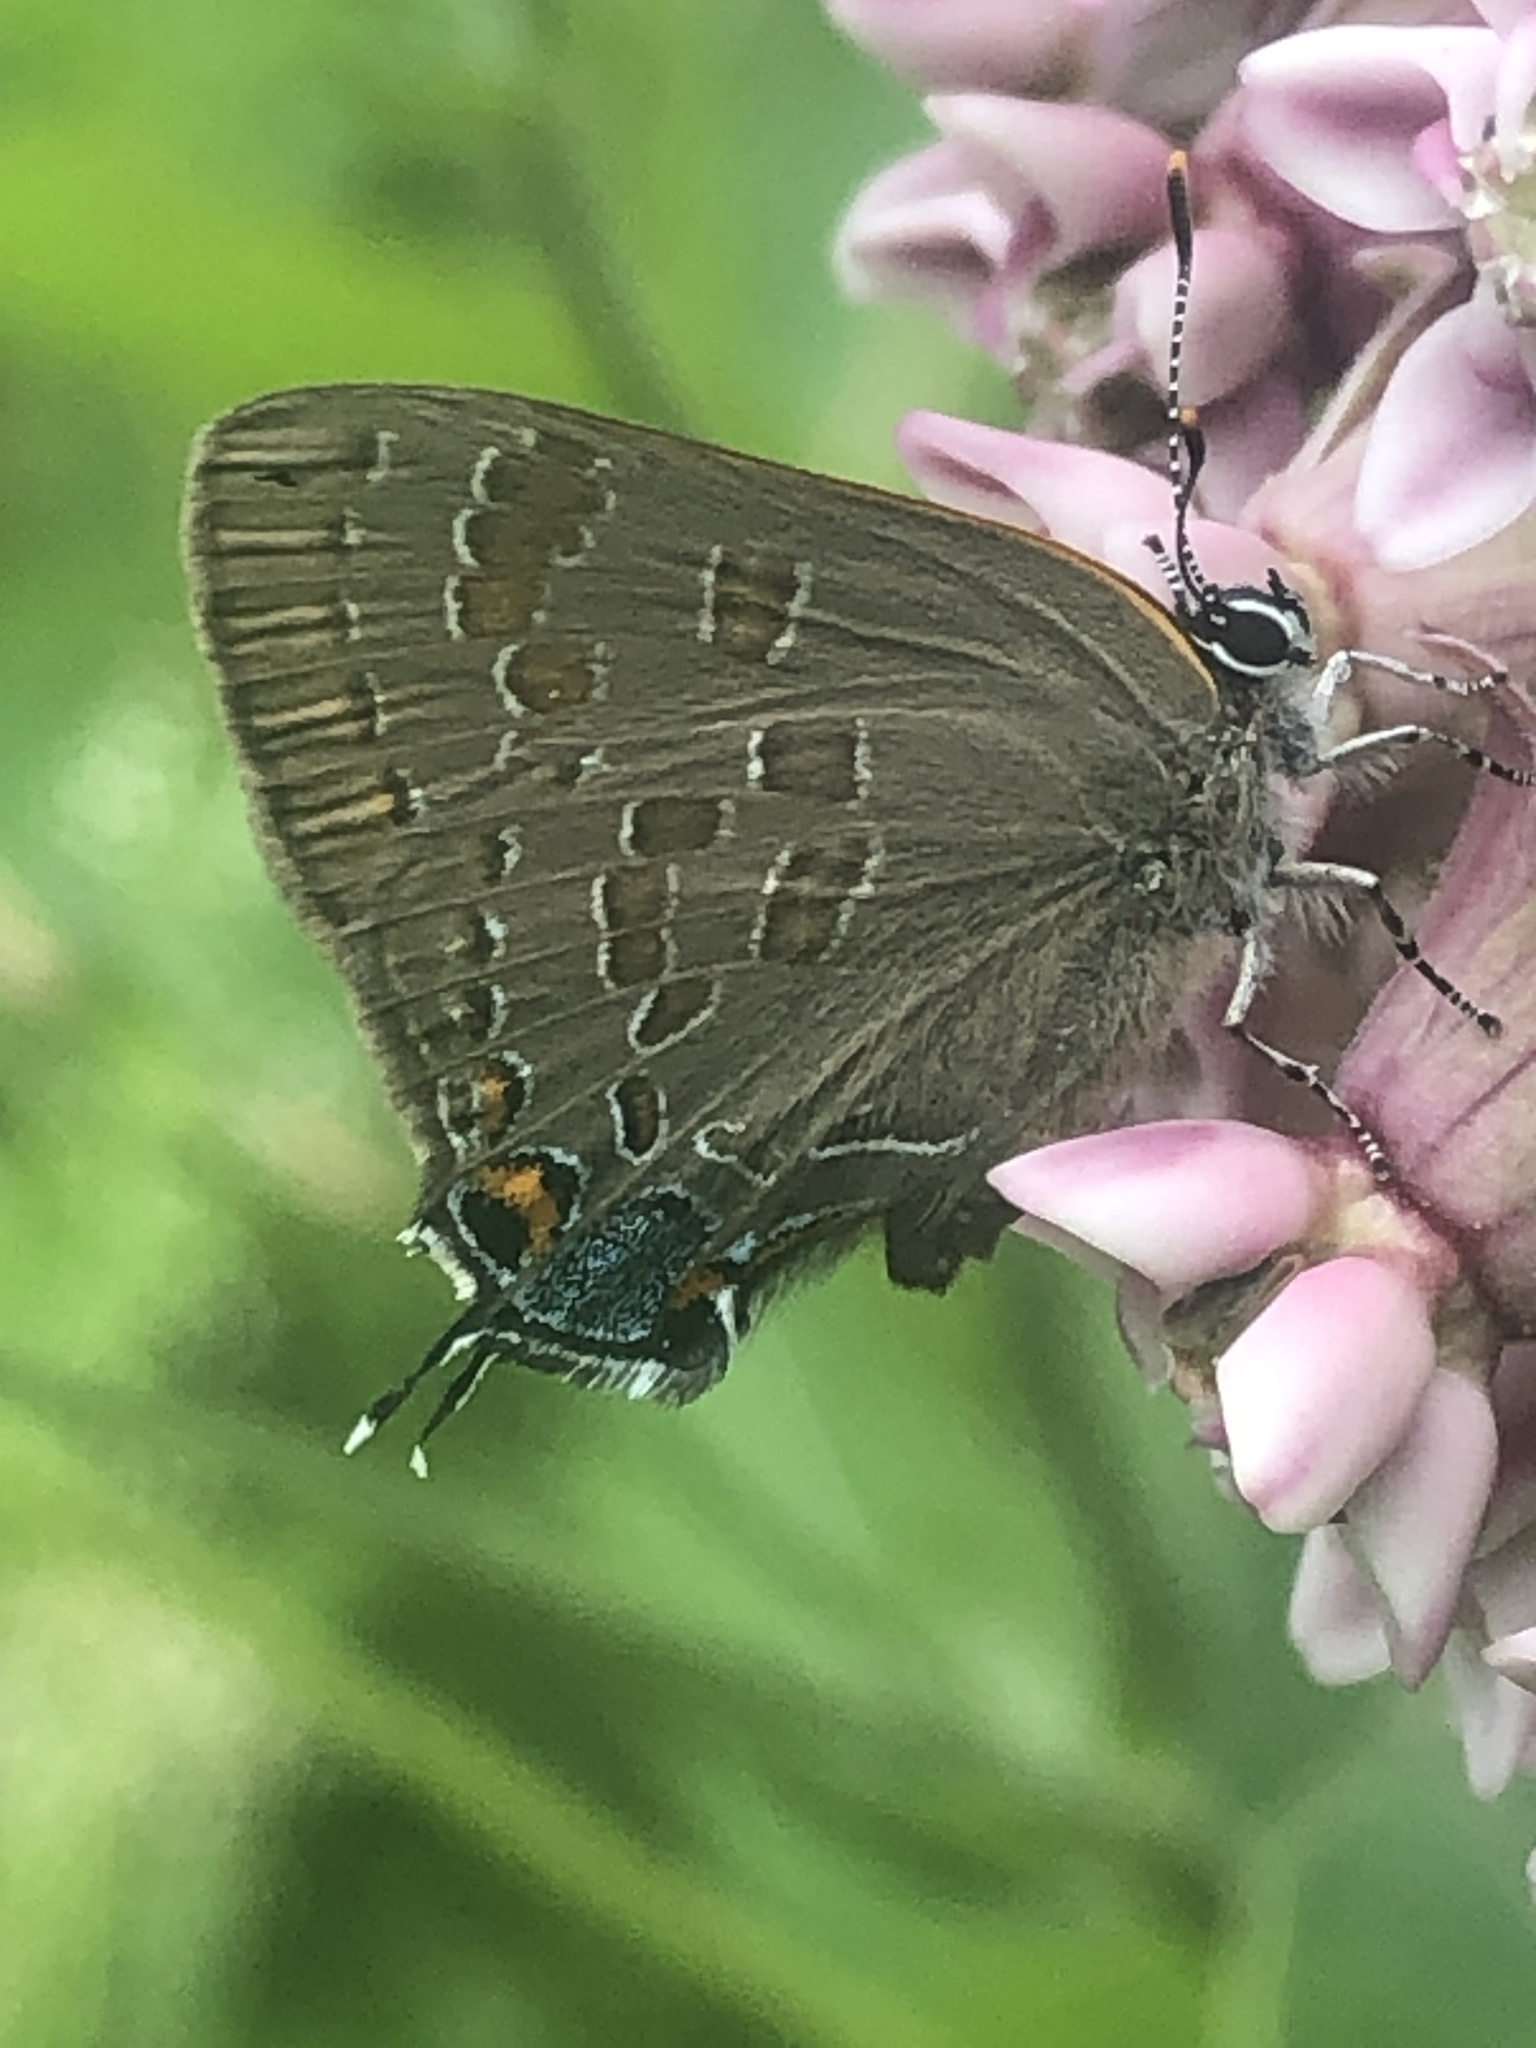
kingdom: Animalia
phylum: Arthropoda
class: Insecta
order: Lepidoptera
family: Lycaenidae
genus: Strymon
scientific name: Strymon caryaevorus
